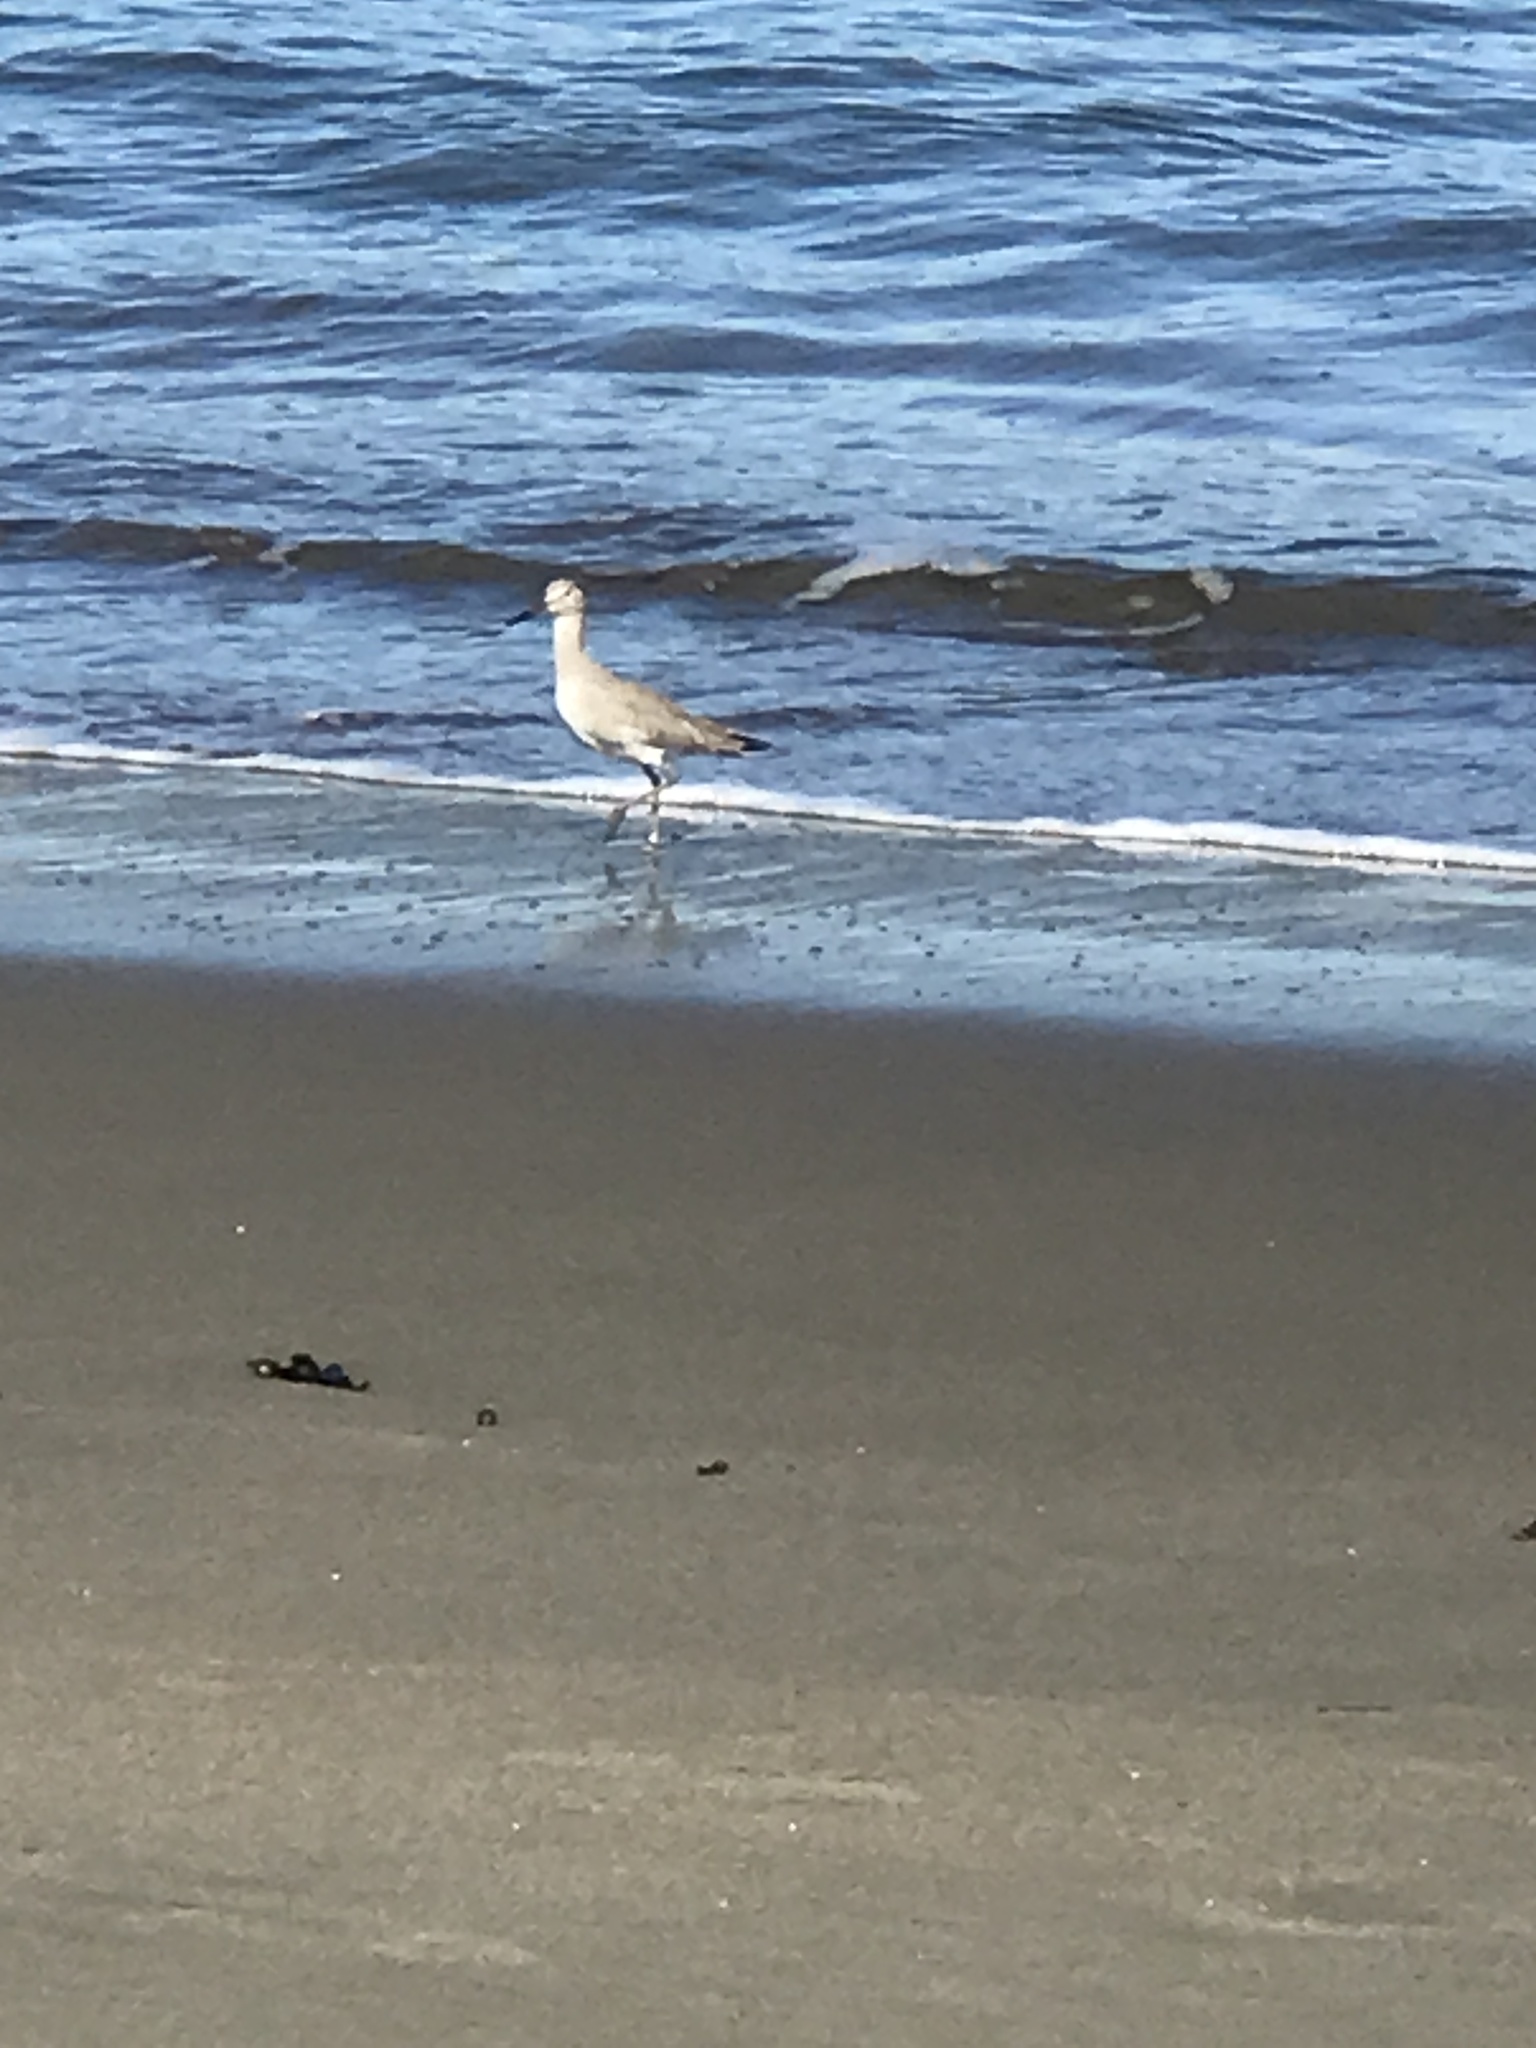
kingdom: Animalia
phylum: Chordata
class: Aves
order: Charadriiformes
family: Scolopacidae
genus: Tringa
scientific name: Tringa semipalmata
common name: Willet
